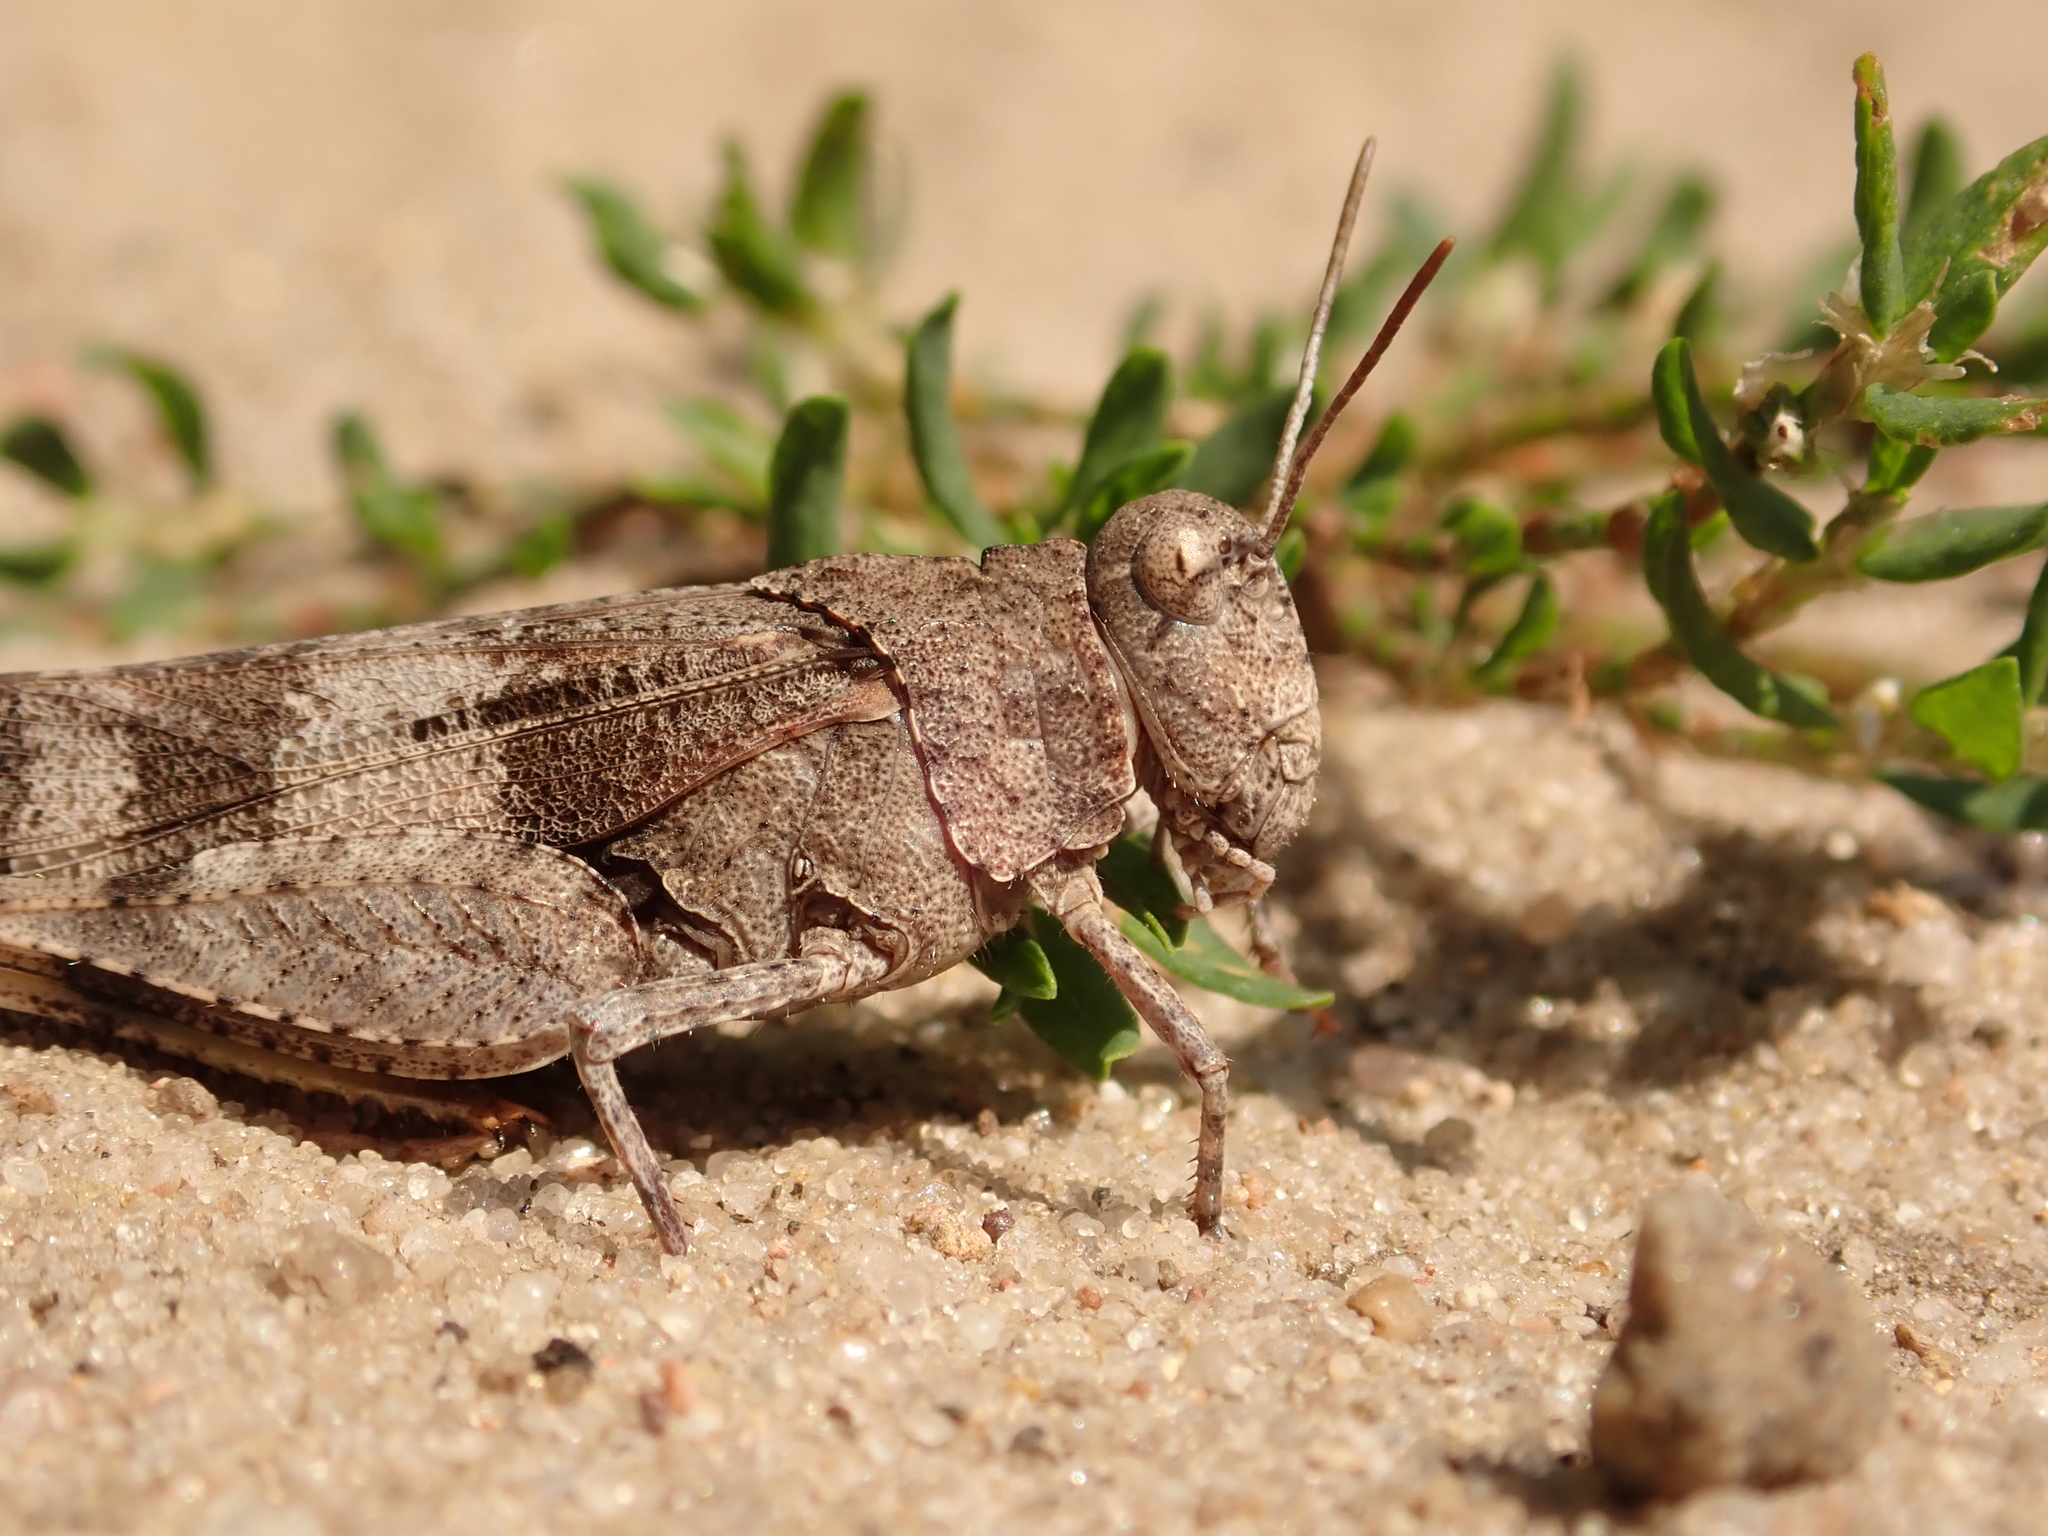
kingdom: Animalia
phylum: Arthropoda
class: Insecta
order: Orthoptera
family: Acrididae
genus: Oedipoda
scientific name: Oedipoda caerulescens
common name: Blue-winged grasshopper
